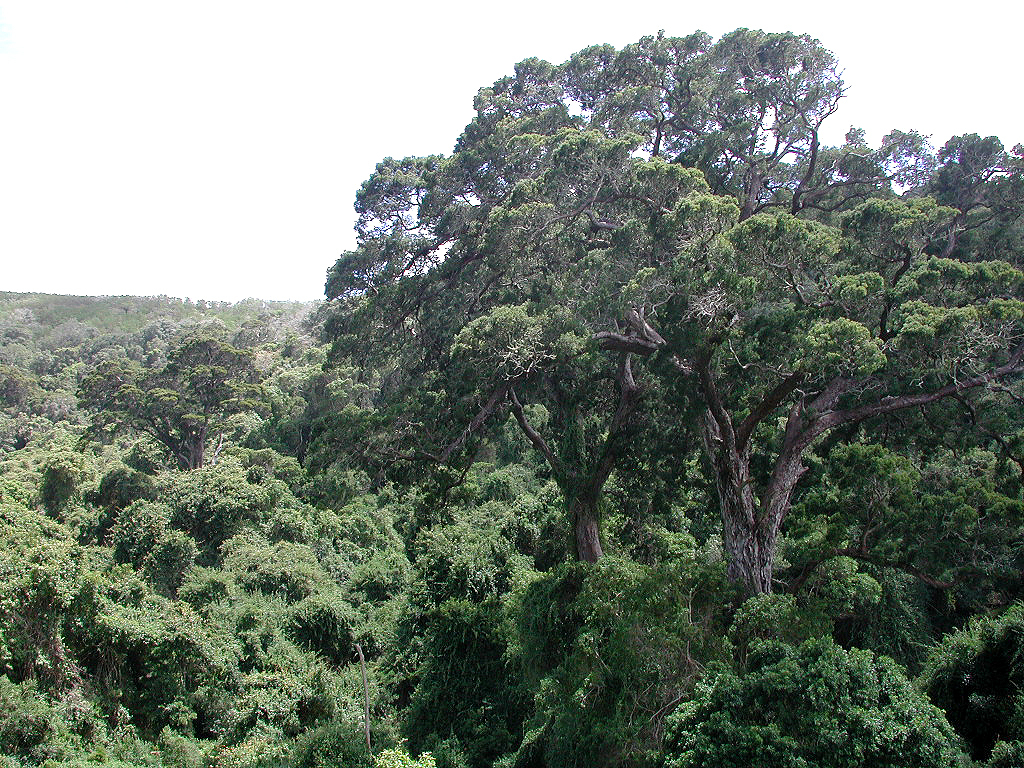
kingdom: Plantae
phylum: Tracheophyta
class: Pinopsida
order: Pinales
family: Podocarpaceae
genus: Afrocarpus
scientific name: Afrocarpus falcatus
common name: Bastard yellowwood
